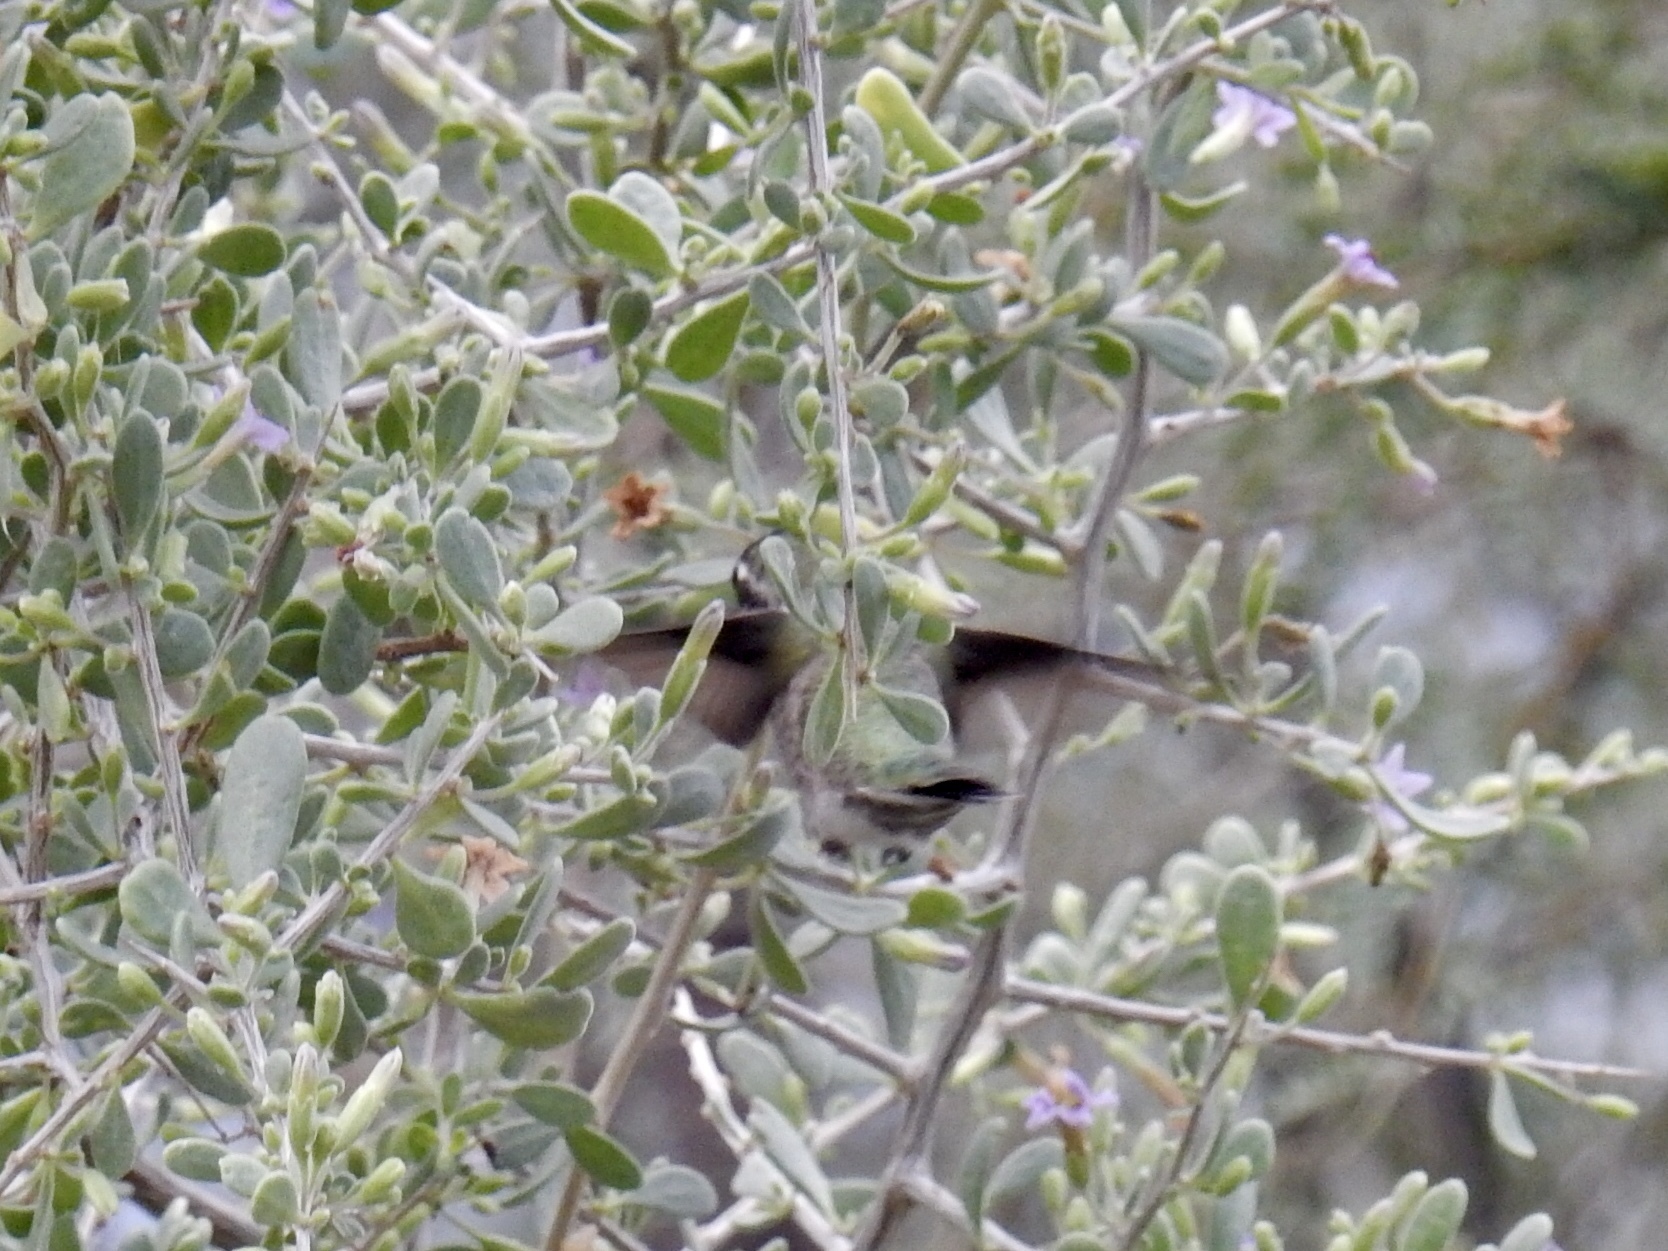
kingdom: Animalia
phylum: Chordata
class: Aves
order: Apodiformes
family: Trochilidae
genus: Calypte
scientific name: Calypte anna
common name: Anna's hummingbird
